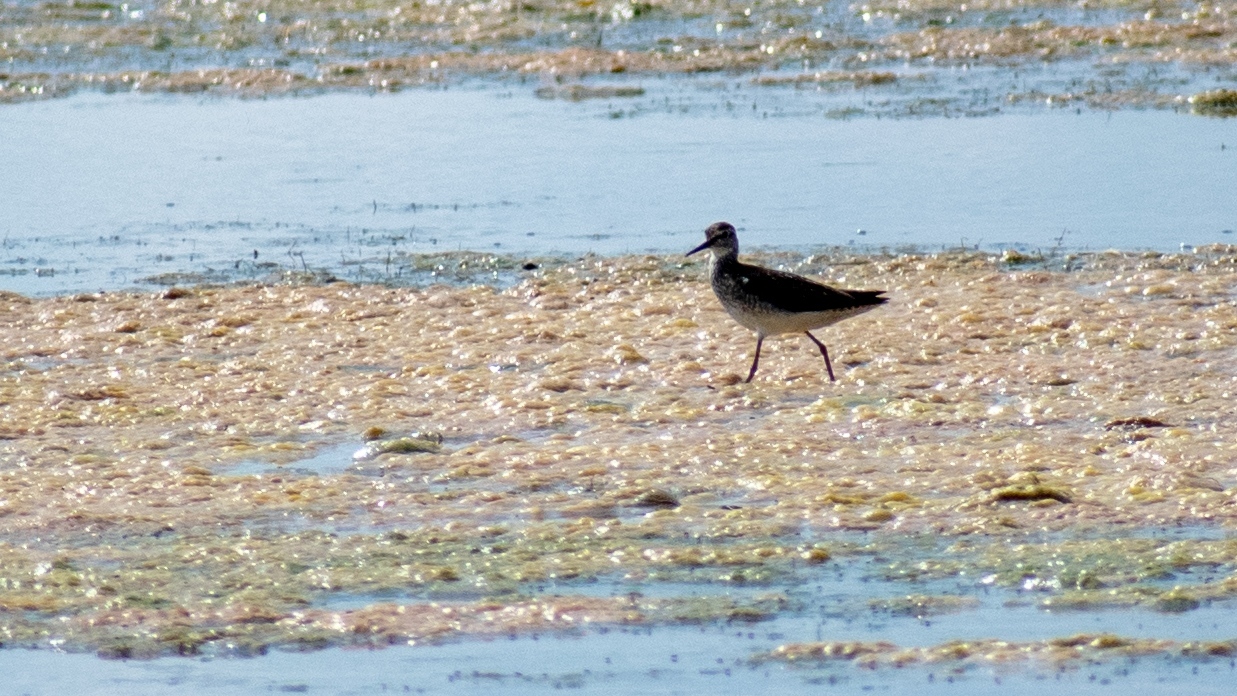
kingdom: Animalia
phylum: Chordata
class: Aves
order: Charadriiformes
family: Scolopacidae
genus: Tringa
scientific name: Tringa glareola
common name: Wood sandpiper
